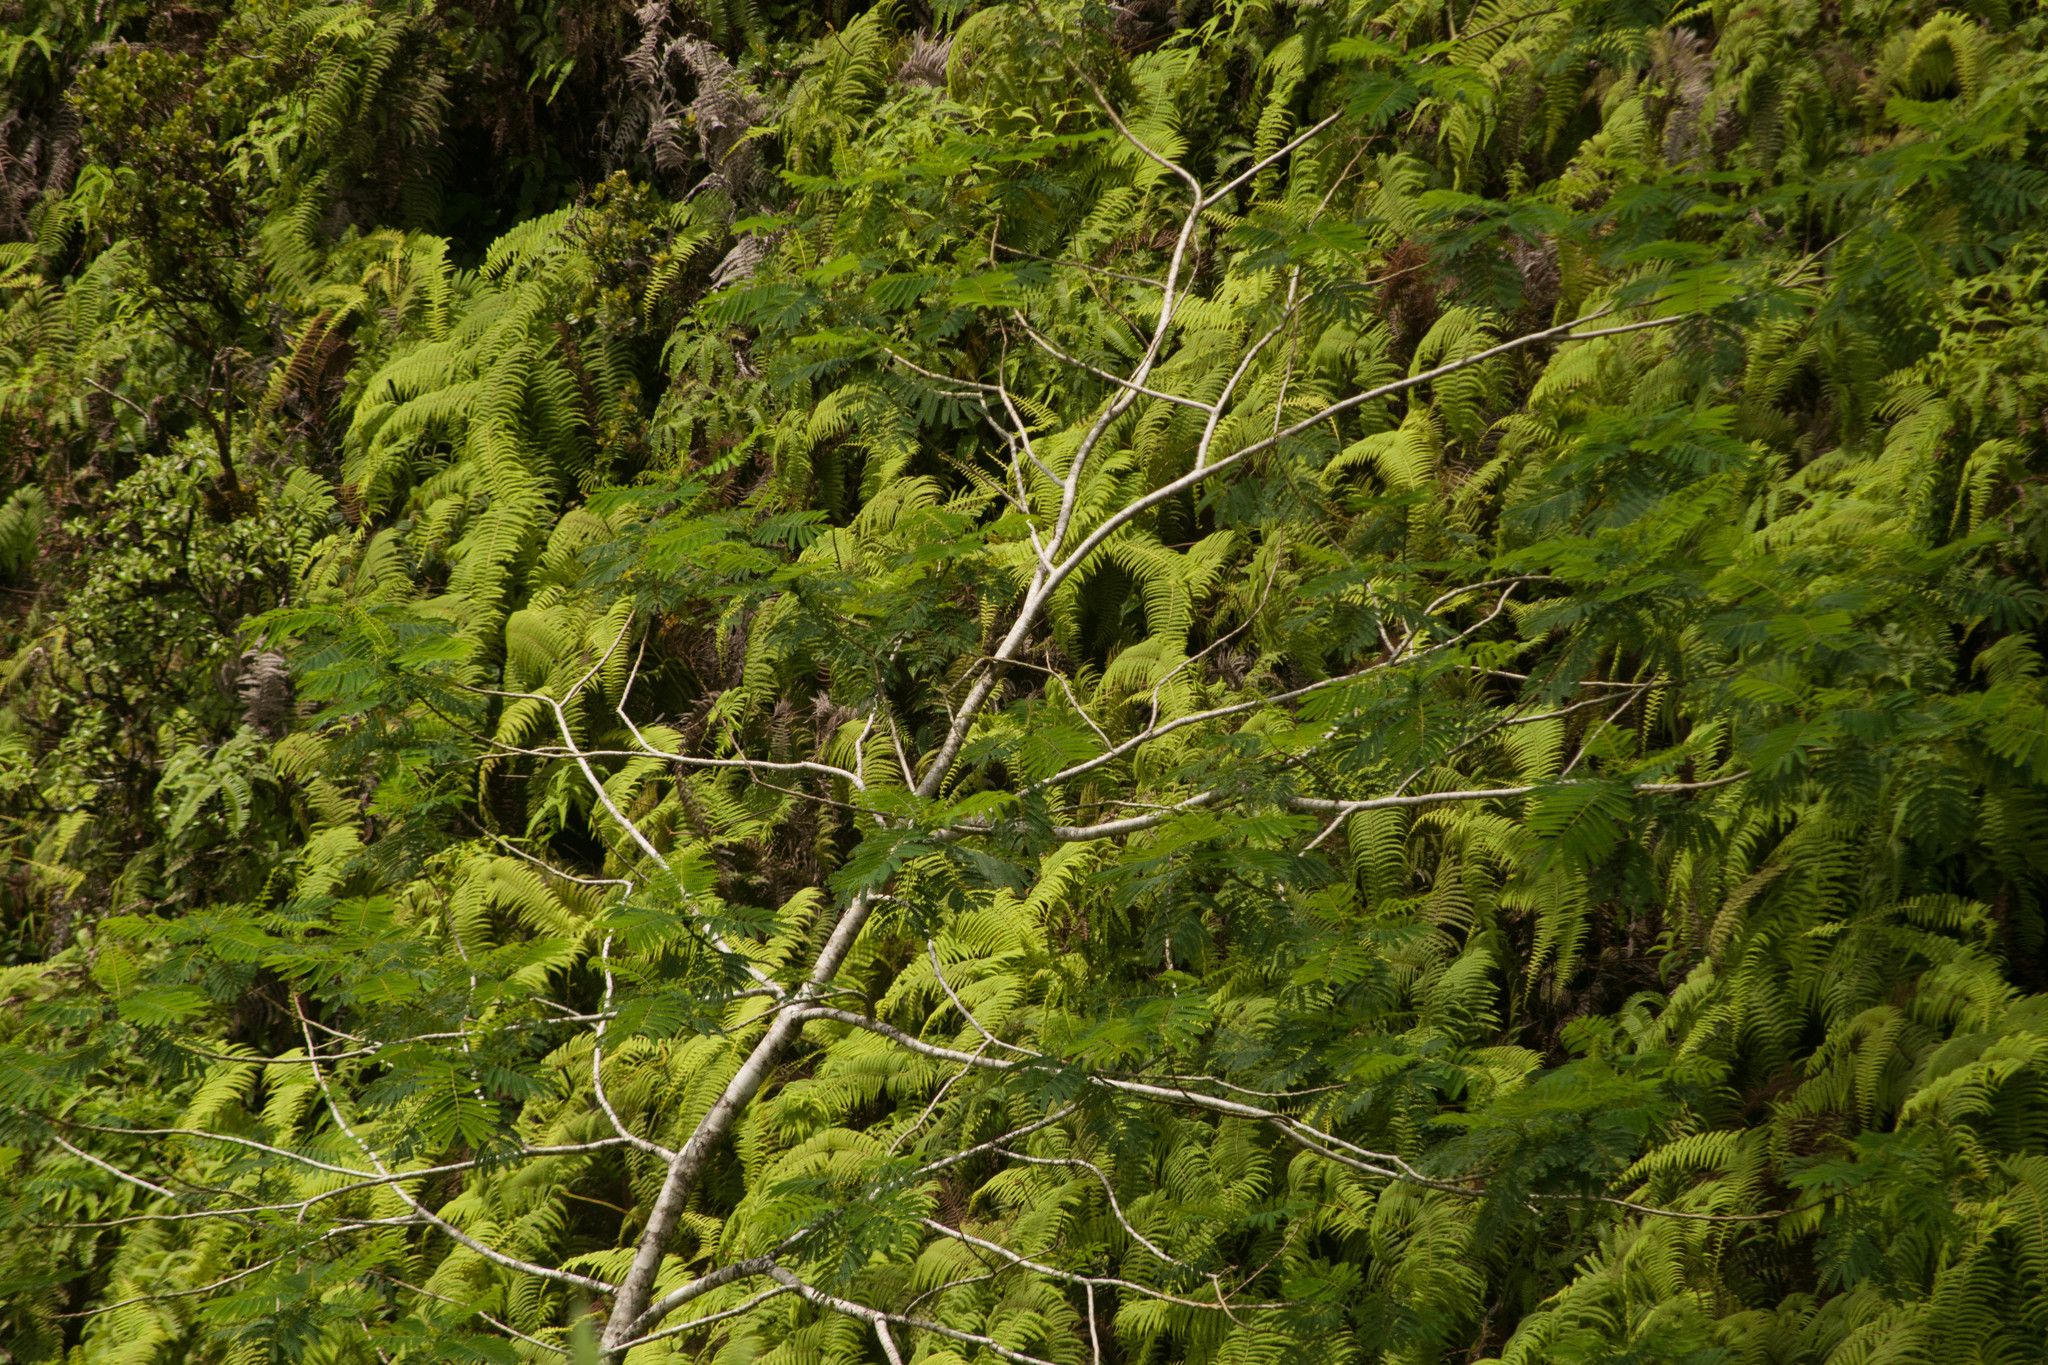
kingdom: Plantae
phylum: Tracheophyta
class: Magnoliopsida
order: Fabales
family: Fabaceae
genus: Falcataria
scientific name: Falcataria falcata
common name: Moluccan albizia
